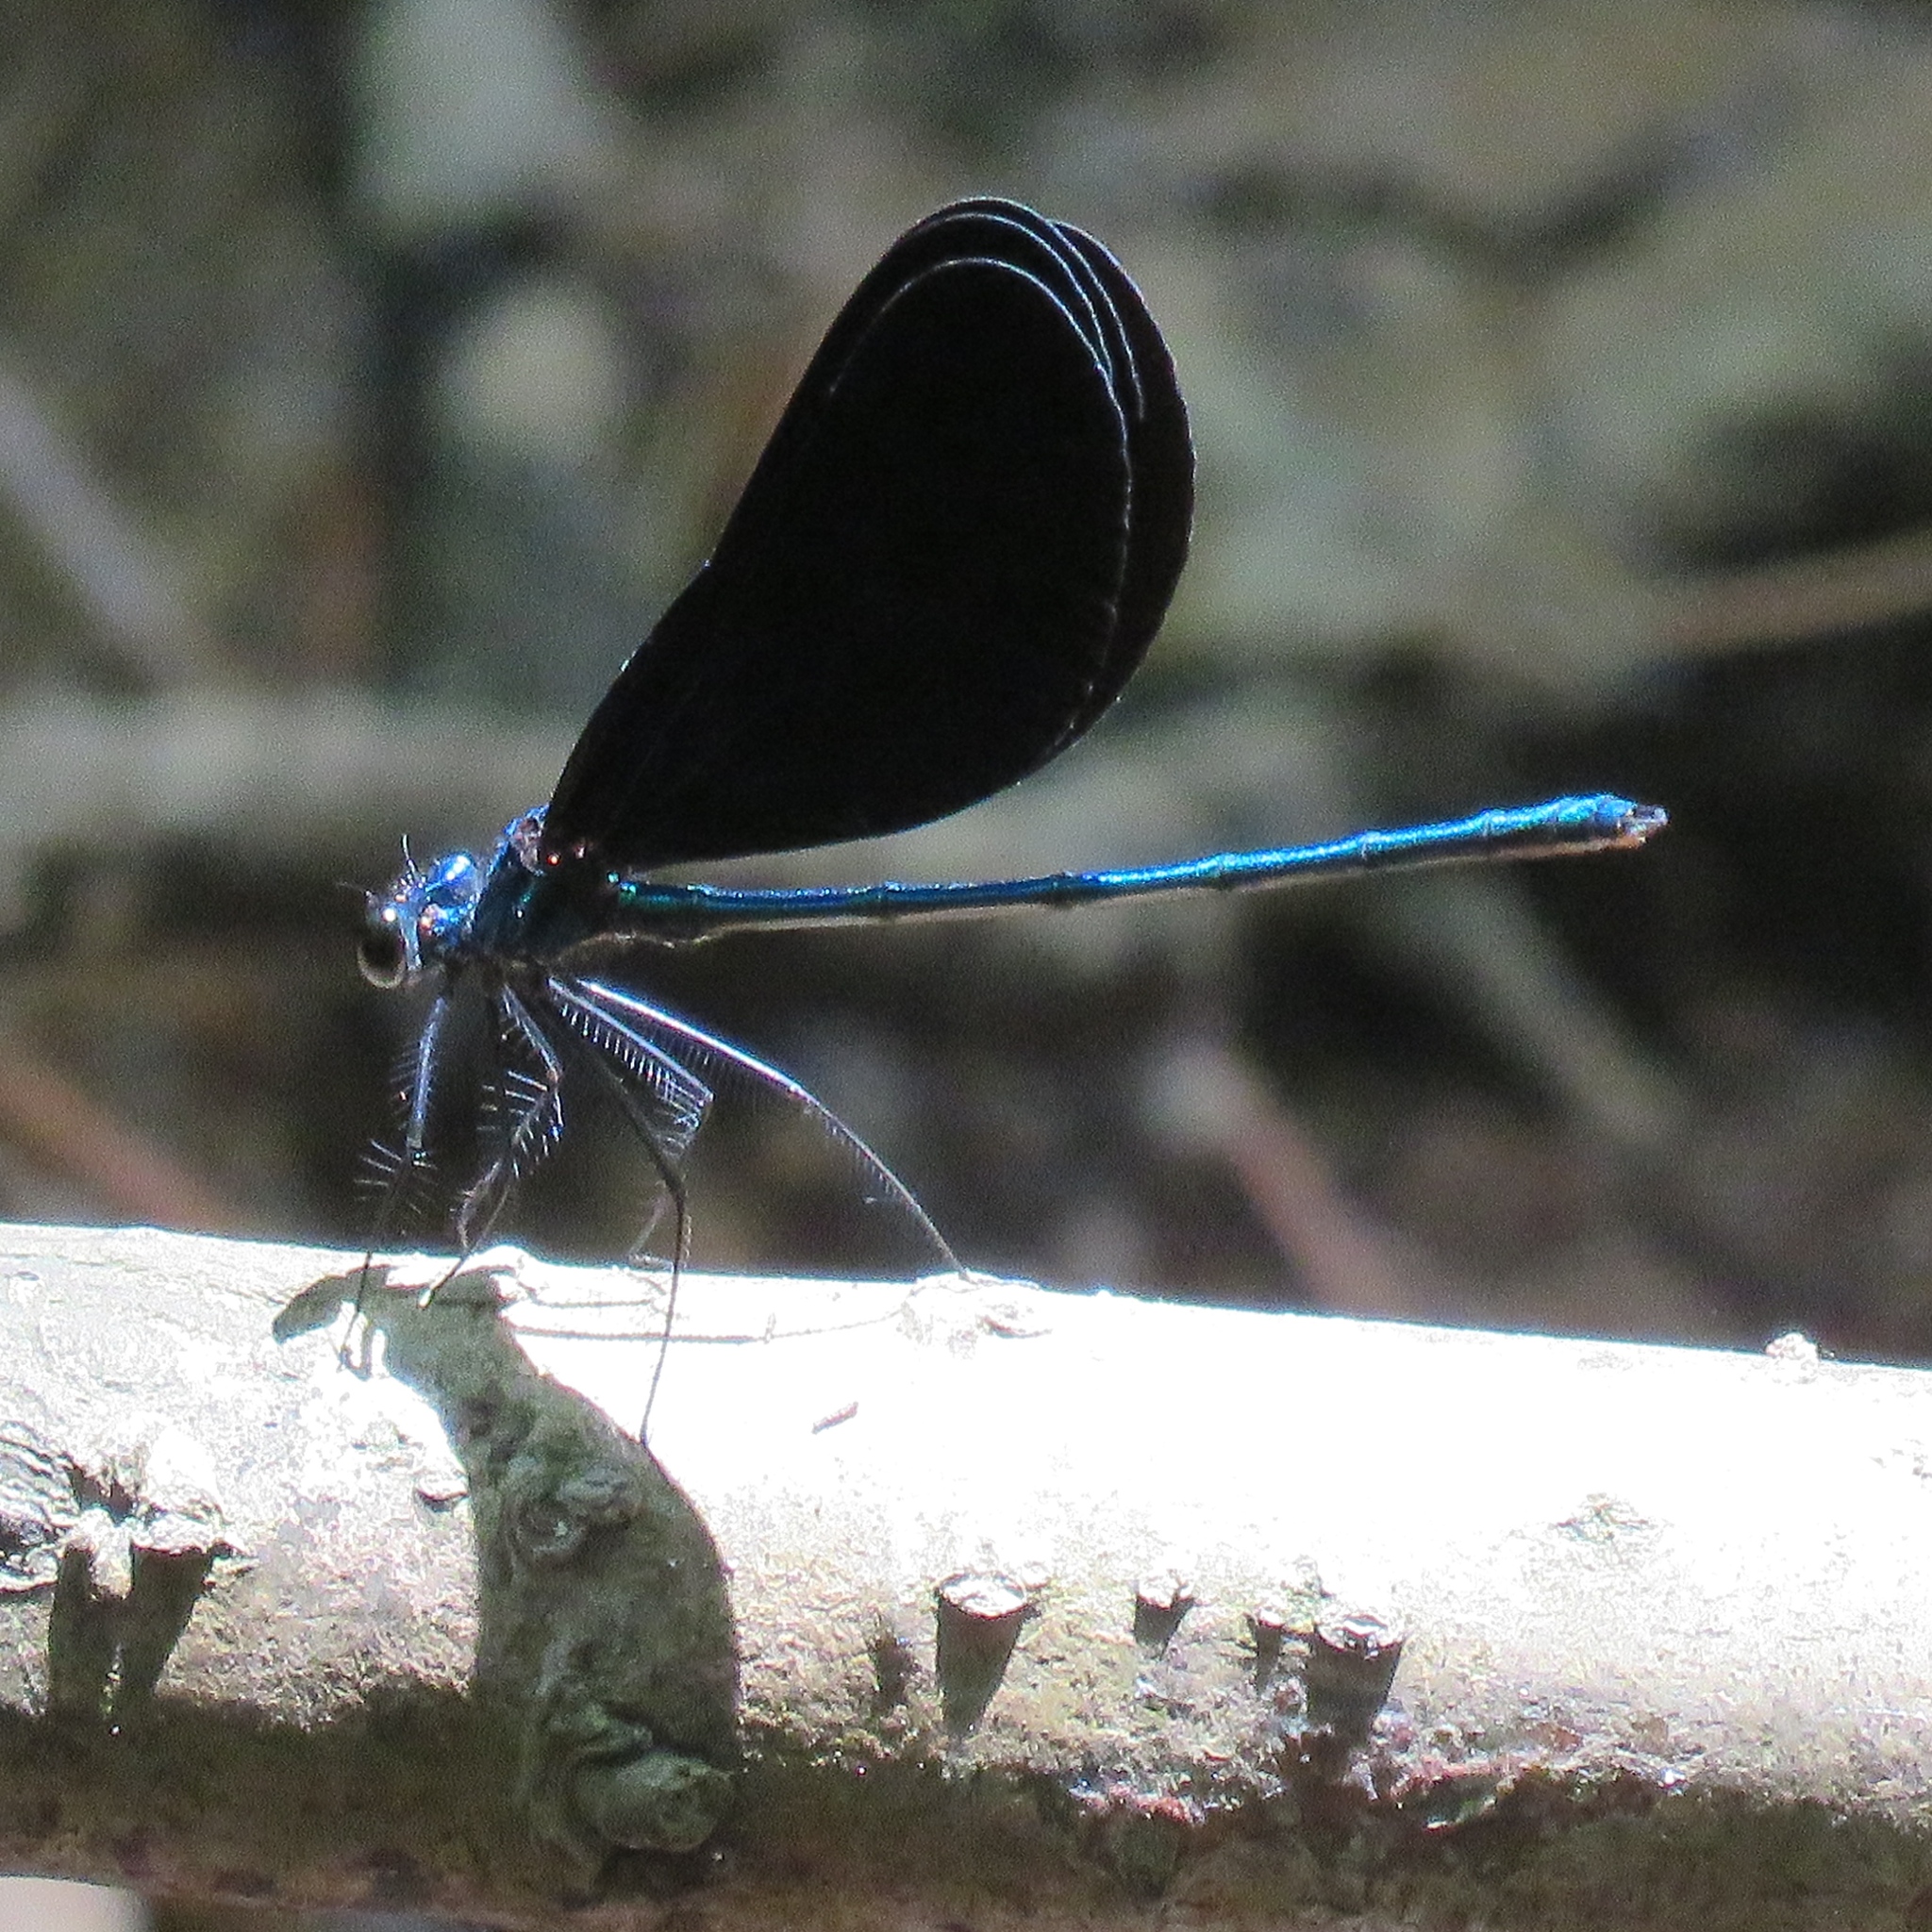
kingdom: Animalia
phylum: Arthropoda
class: Insecta
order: Odonata
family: Calopterygidae
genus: Calopteryx
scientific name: Calopteryx maculata
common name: Ebony jewelwing
